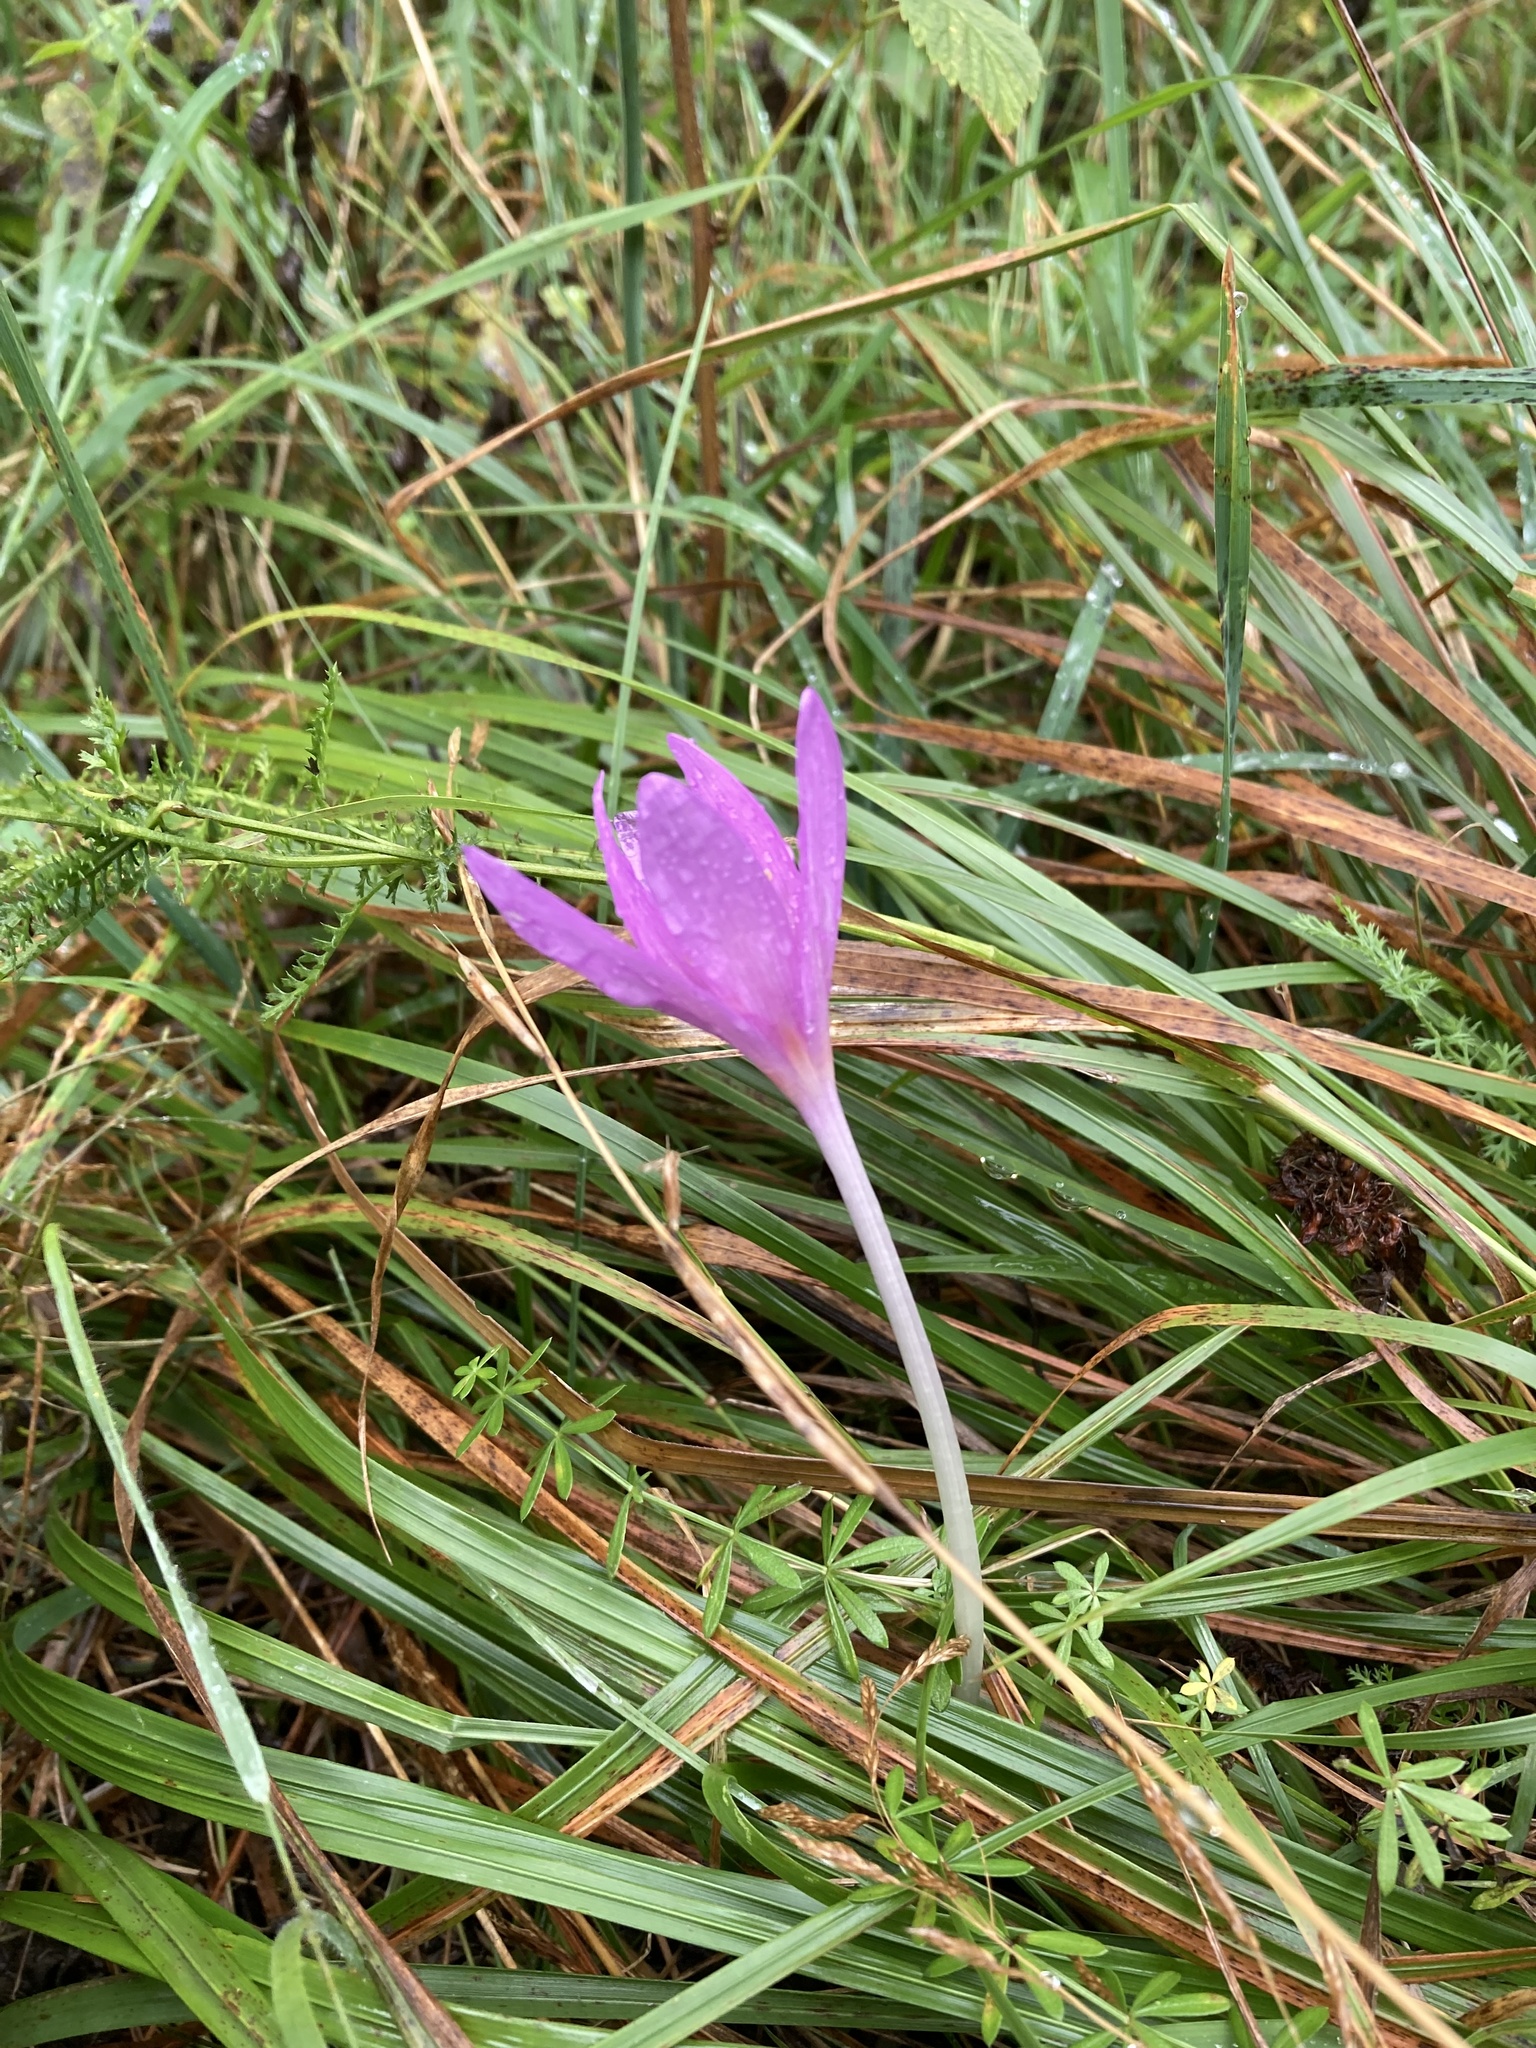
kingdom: Plantae
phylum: Tracheophyta
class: Liliopsida
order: Liliales
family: Colchicaceae
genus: Colchicum
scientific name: Colchicum autumnale
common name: Autumn crocus
